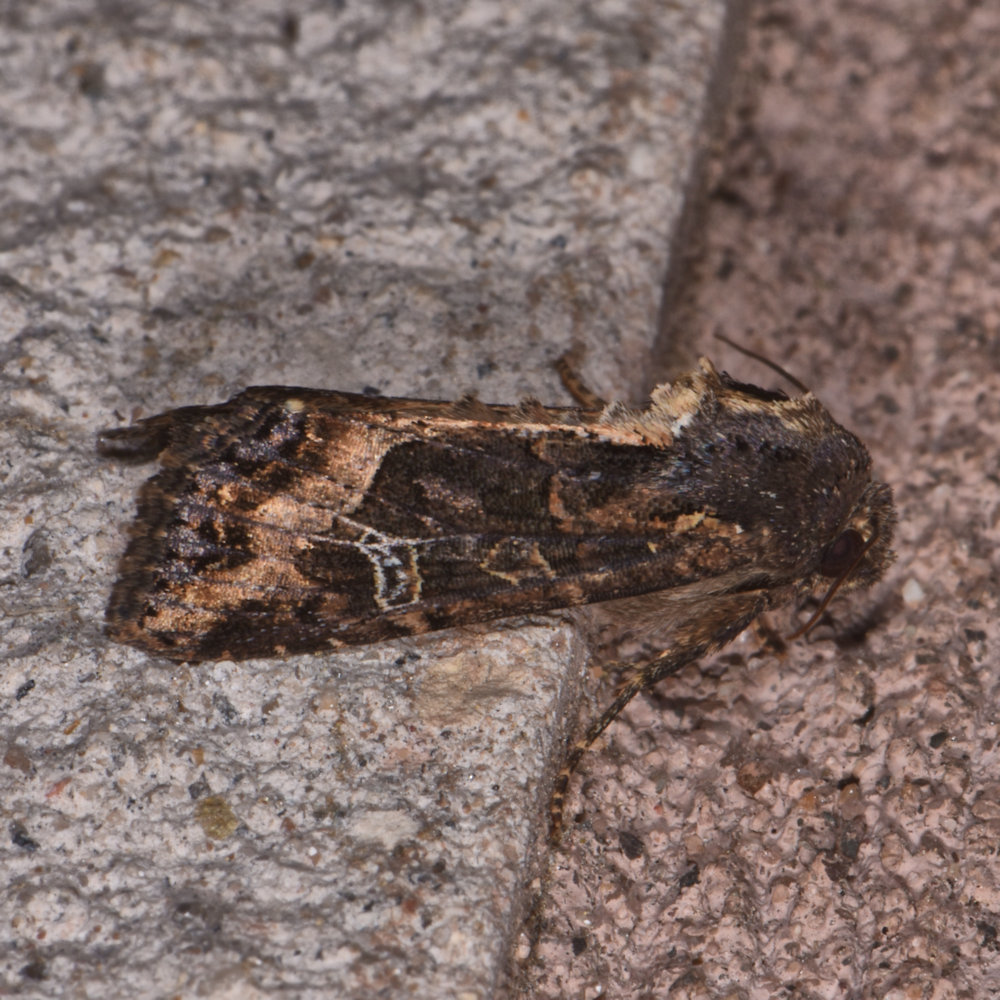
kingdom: Animalia
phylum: Arthropoda
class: Insecta
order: Lepidoptera
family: Noctuidae
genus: Helotropha
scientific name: Helotropha reniformis
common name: Kidney-spotted rustic moth
